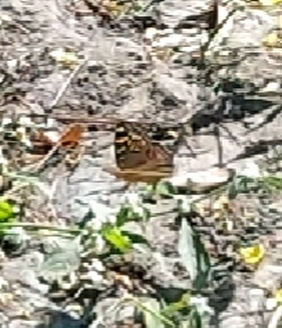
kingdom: Animalia
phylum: Arthropoda
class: Insecta
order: Lepidoptera
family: Nymphalidae
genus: Junonia
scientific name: Junonia lemonias
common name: Lemon pansy
